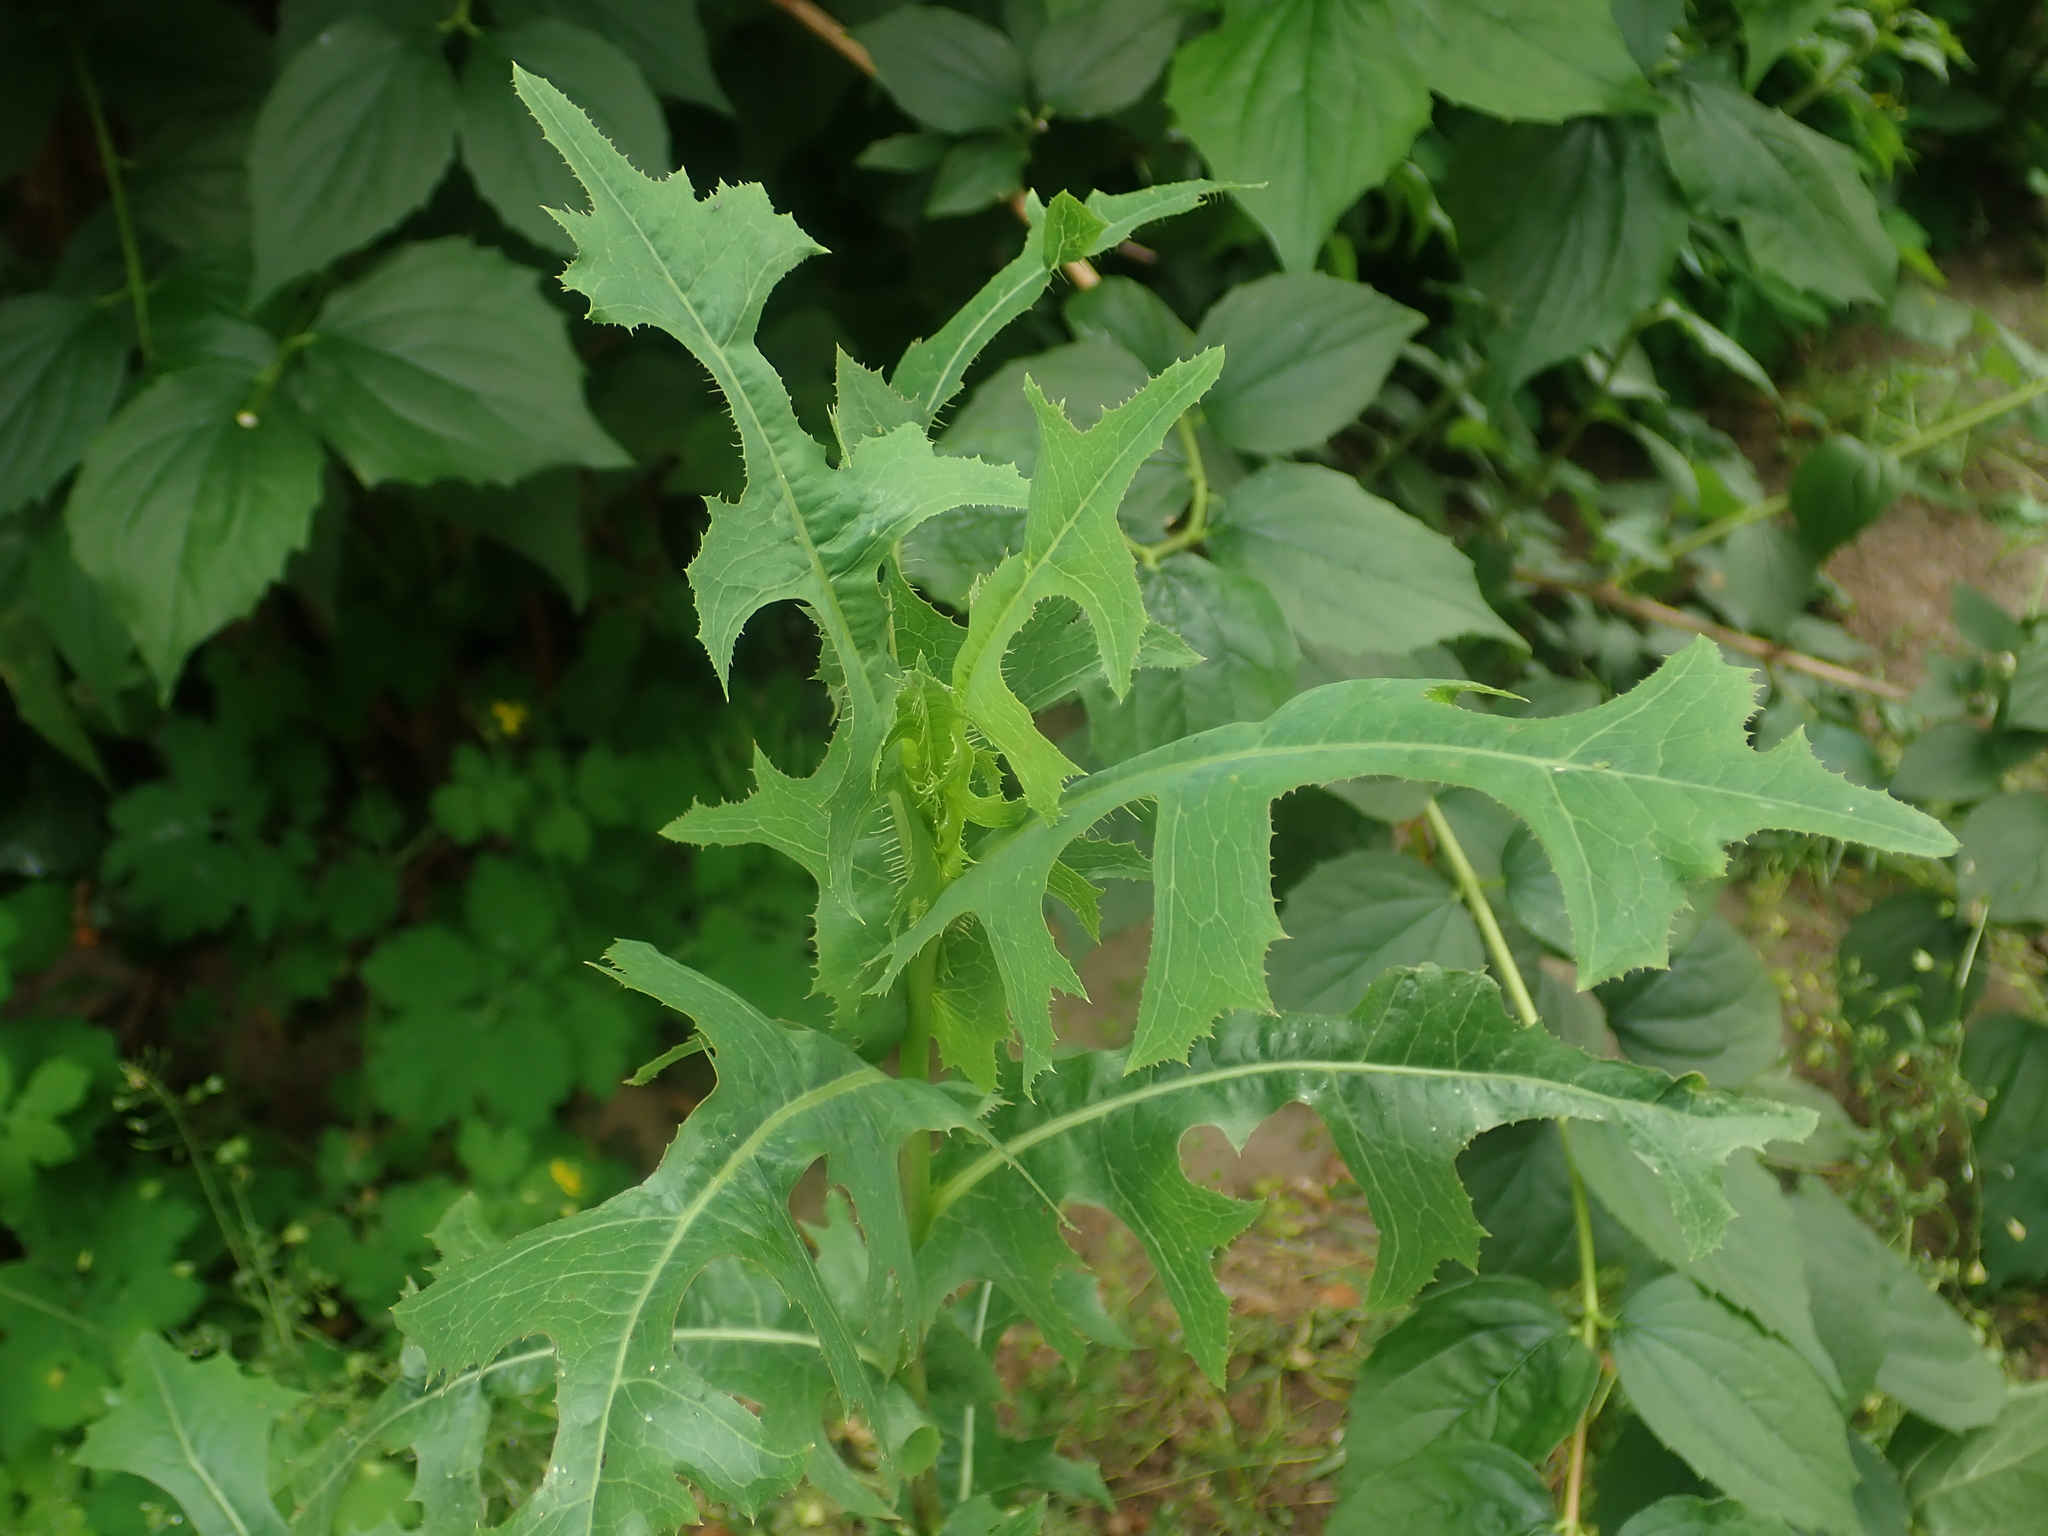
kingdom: Plantae
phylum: Tracheophyta
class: Magnoliopsida
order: Asterales
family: Asteraceae
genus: Lactuca
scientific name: Lactuca serriola
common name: Prickly lettuce
